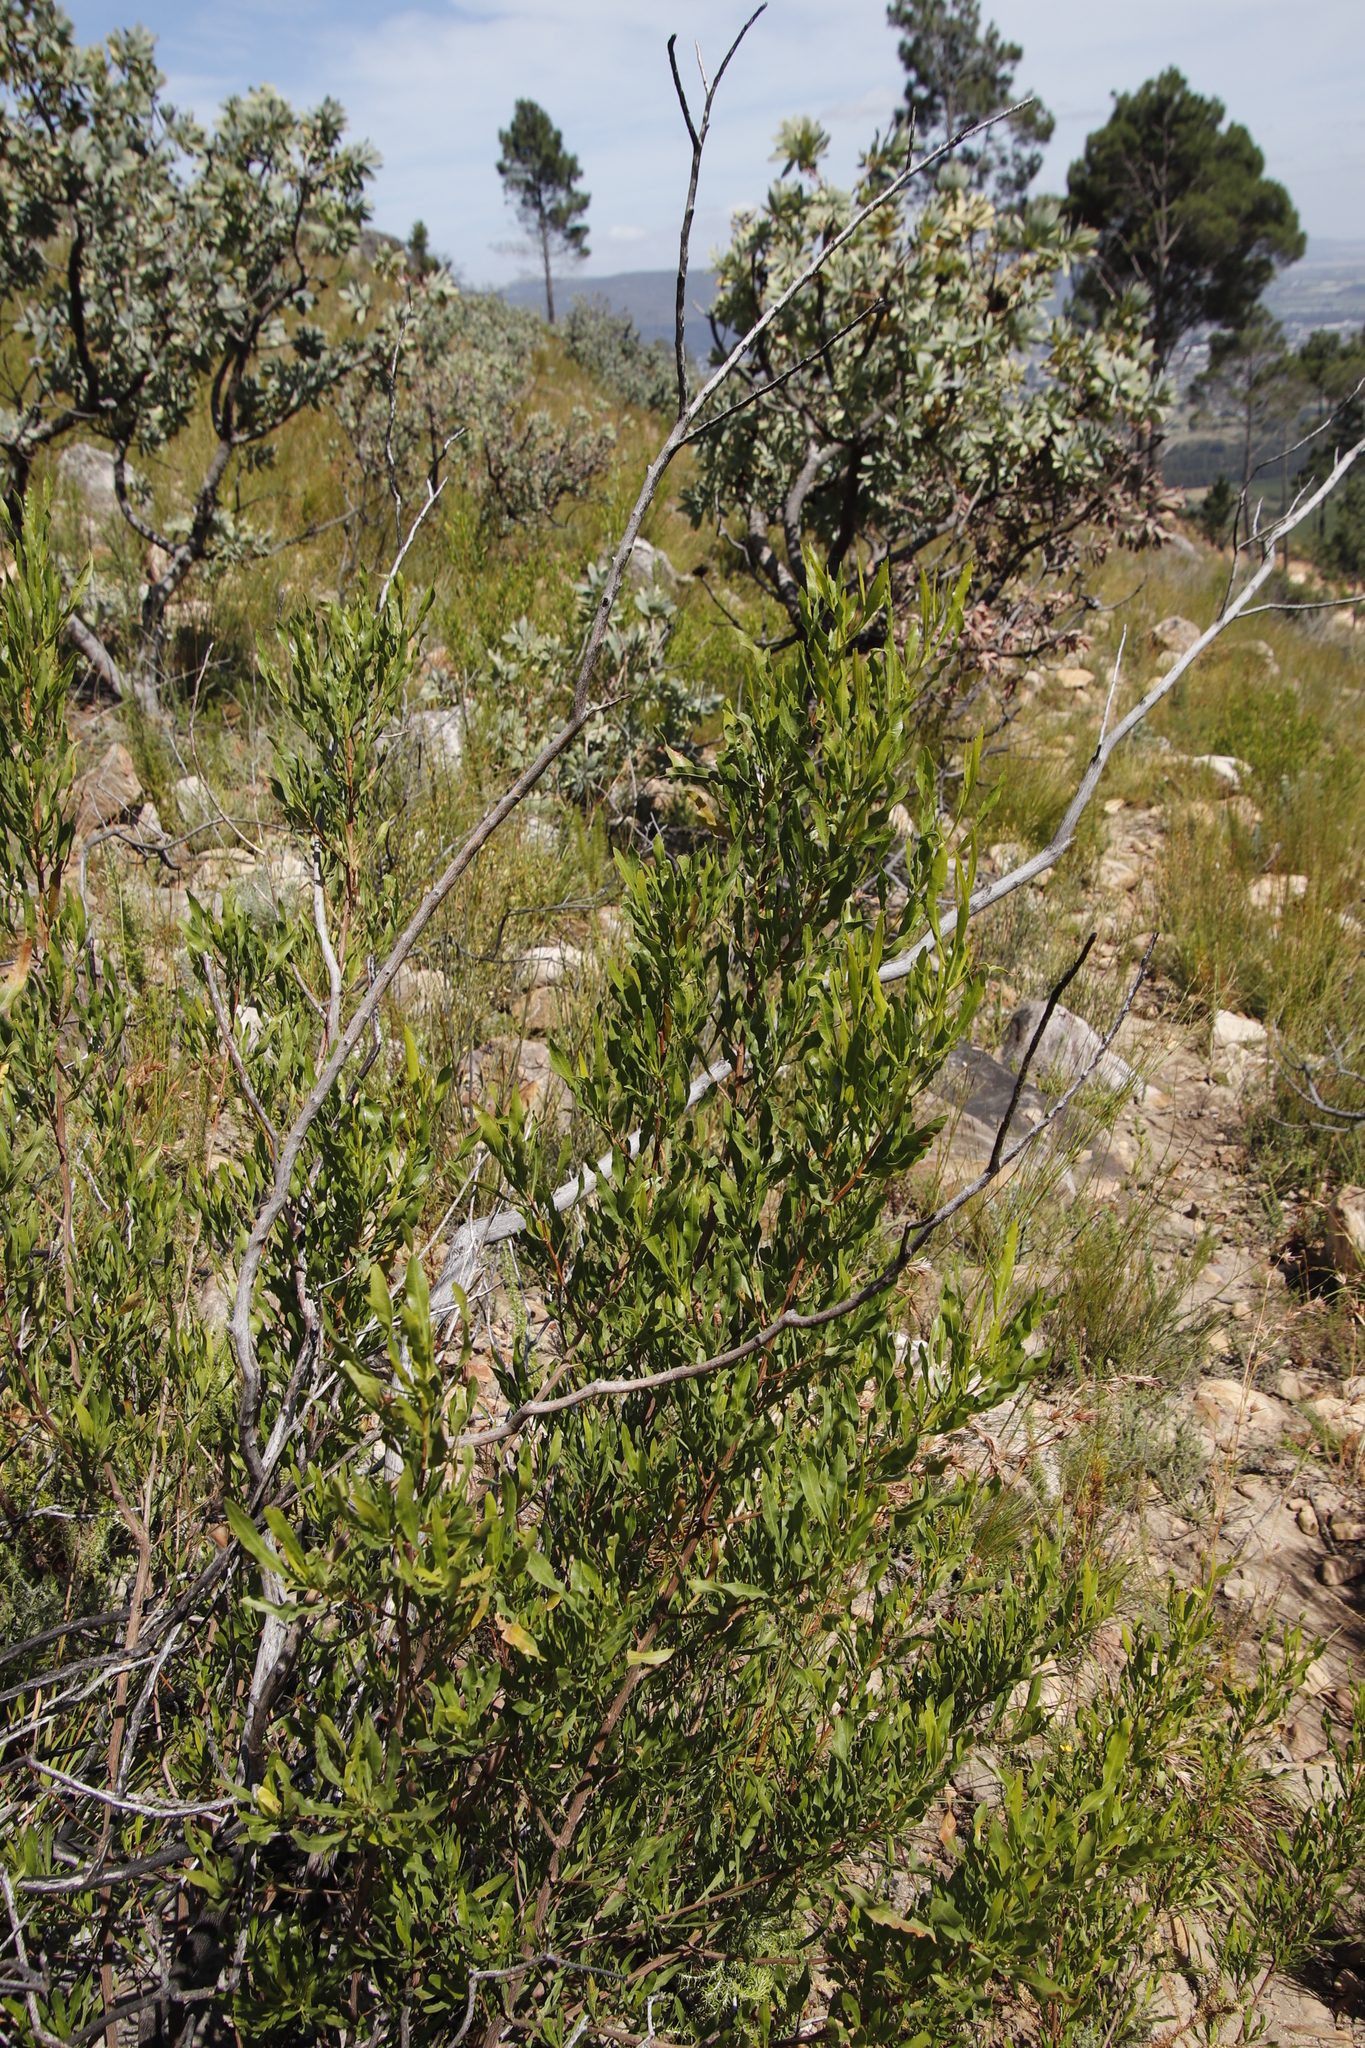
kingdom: Plantae
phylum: Tracheophyta
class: Magnoliopsida
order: Sapindales
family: Sapindaceae
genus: Dodonaea
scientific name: Dodonaea viscosa
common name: Hopbush
